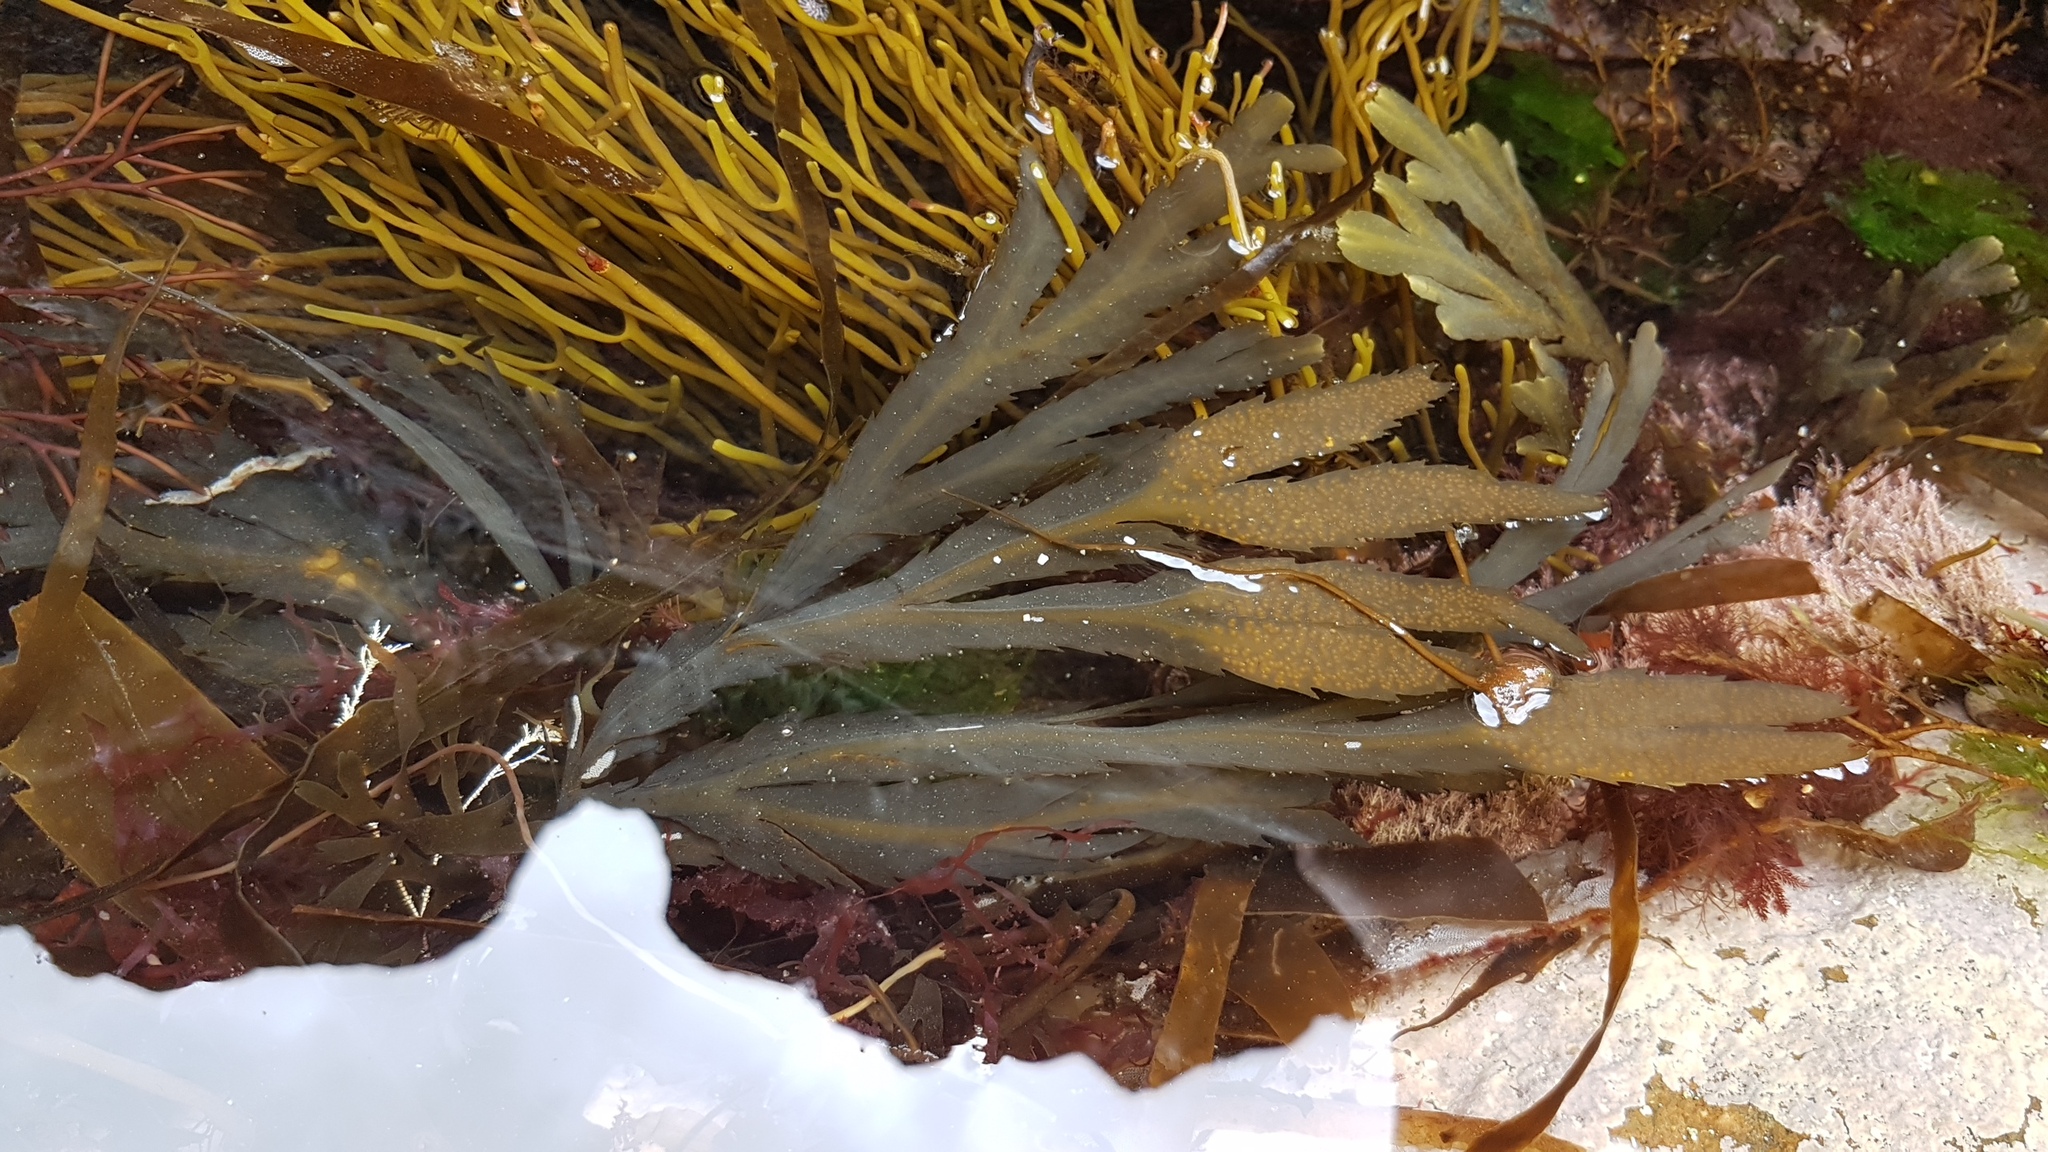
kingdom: Chromista
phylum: Ochrophyta
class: Phaeophyceae
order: Fucales
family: Fucaceae
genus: Fucus
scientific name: Fucus serratus
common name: Toothed wrack
